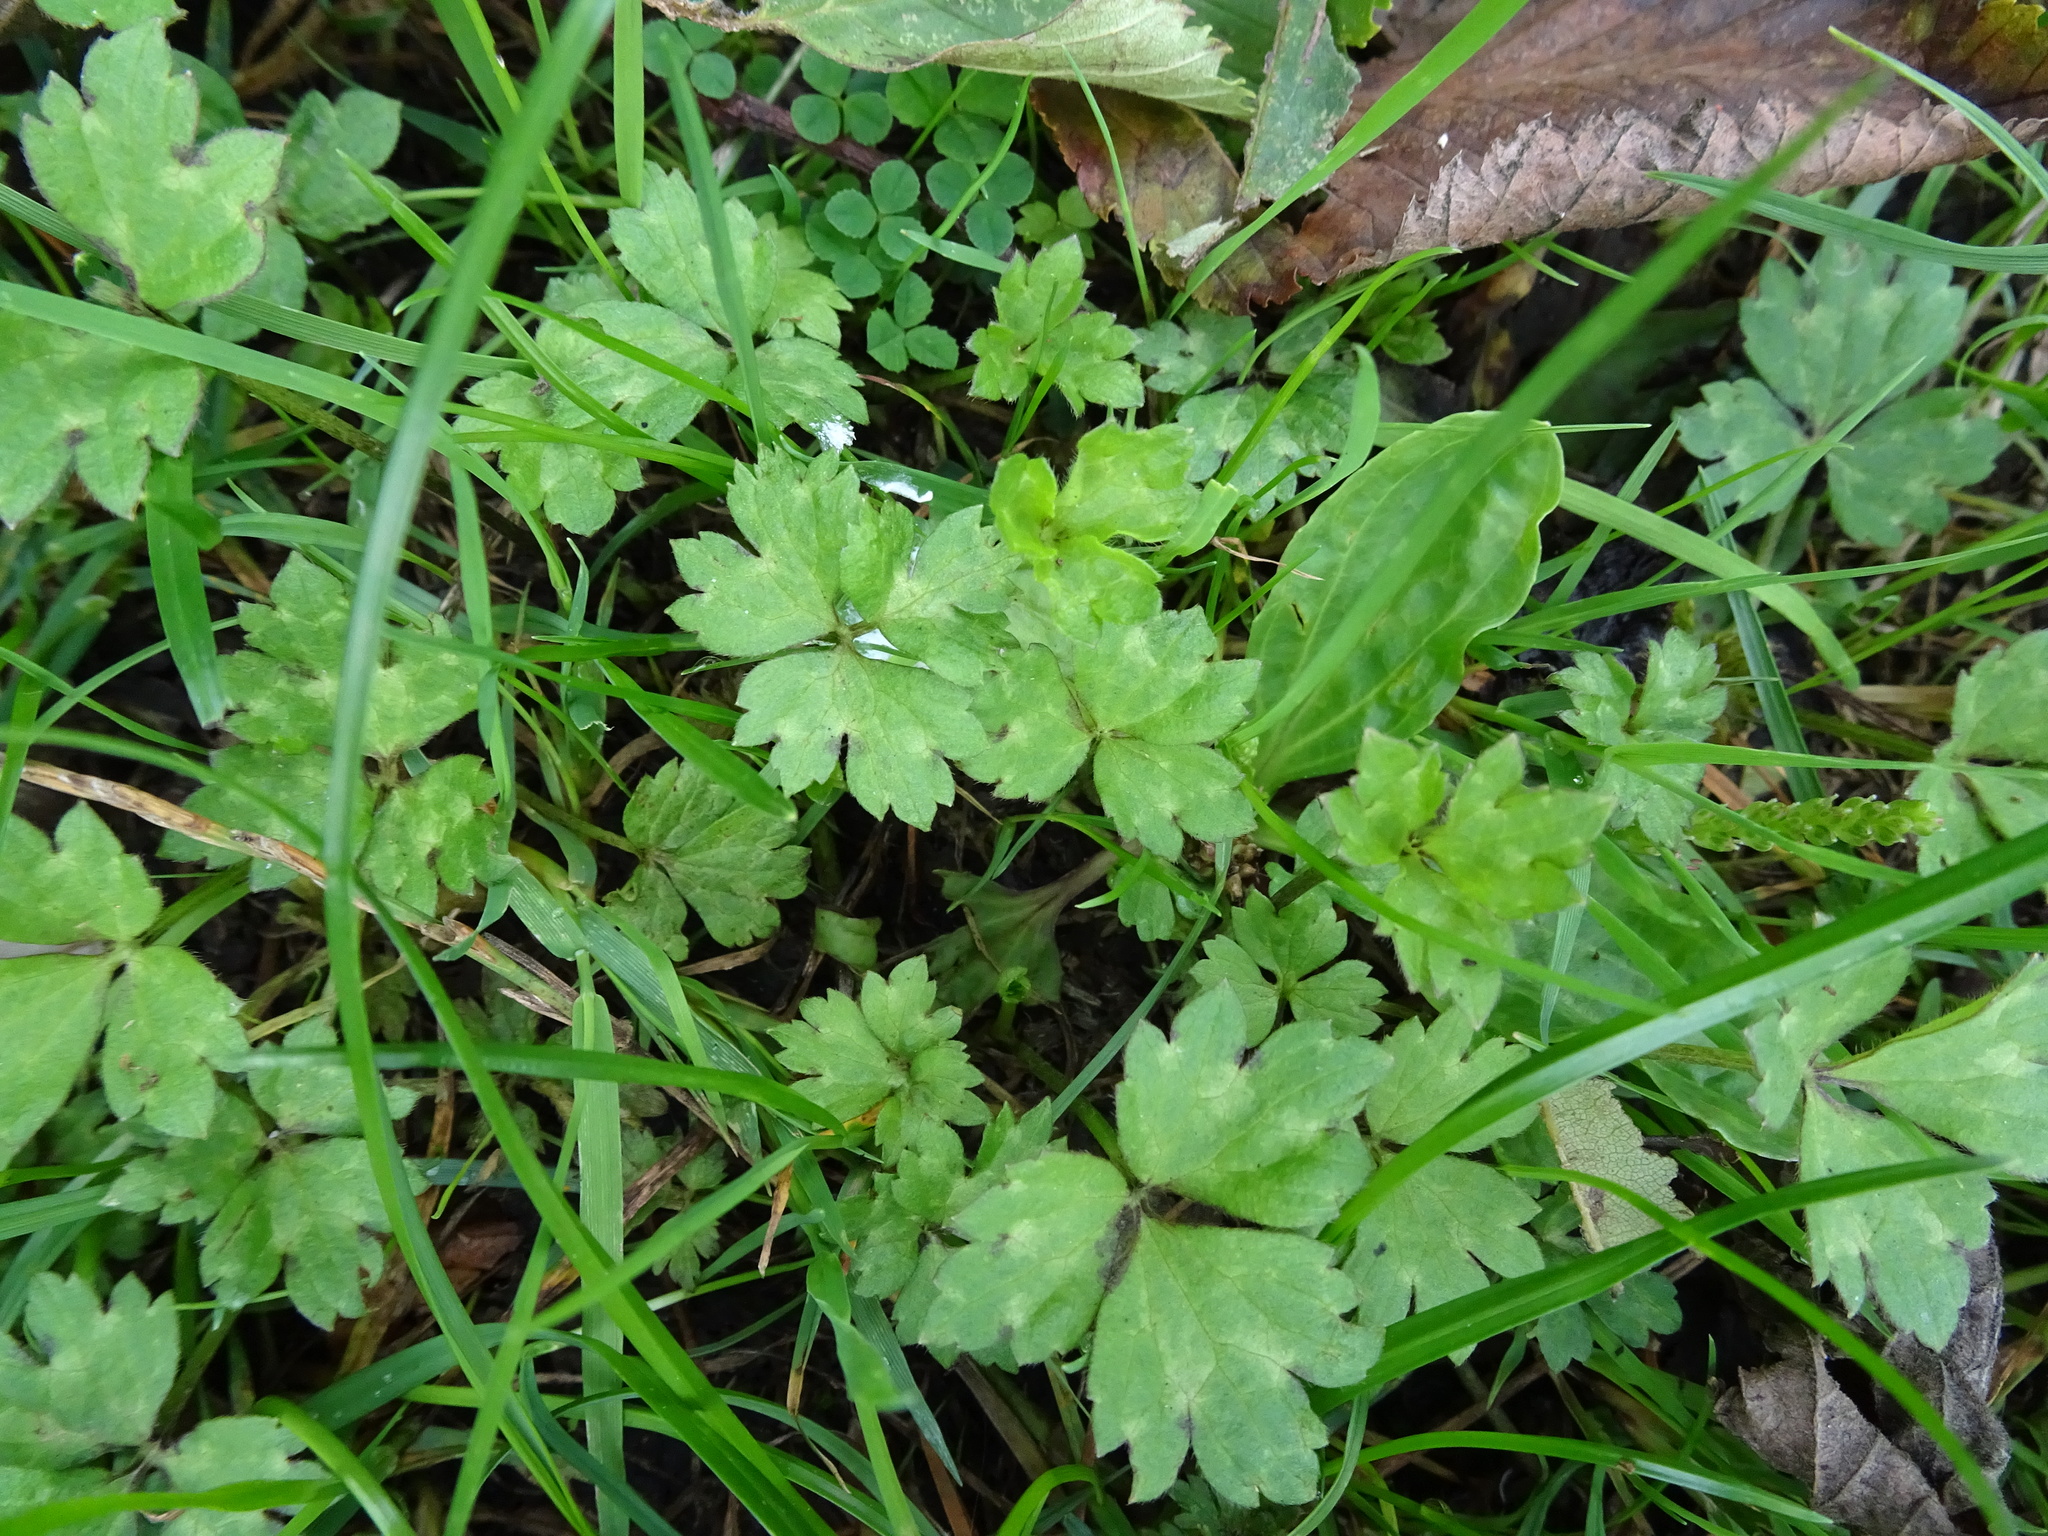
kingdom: Plantae
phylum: Tracheophyta
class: Magnoliopsida
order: Ranunculales
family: Ranunculaceae
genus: Ranunculus
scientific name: Ranunculus repens
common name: Creeping buttercup
